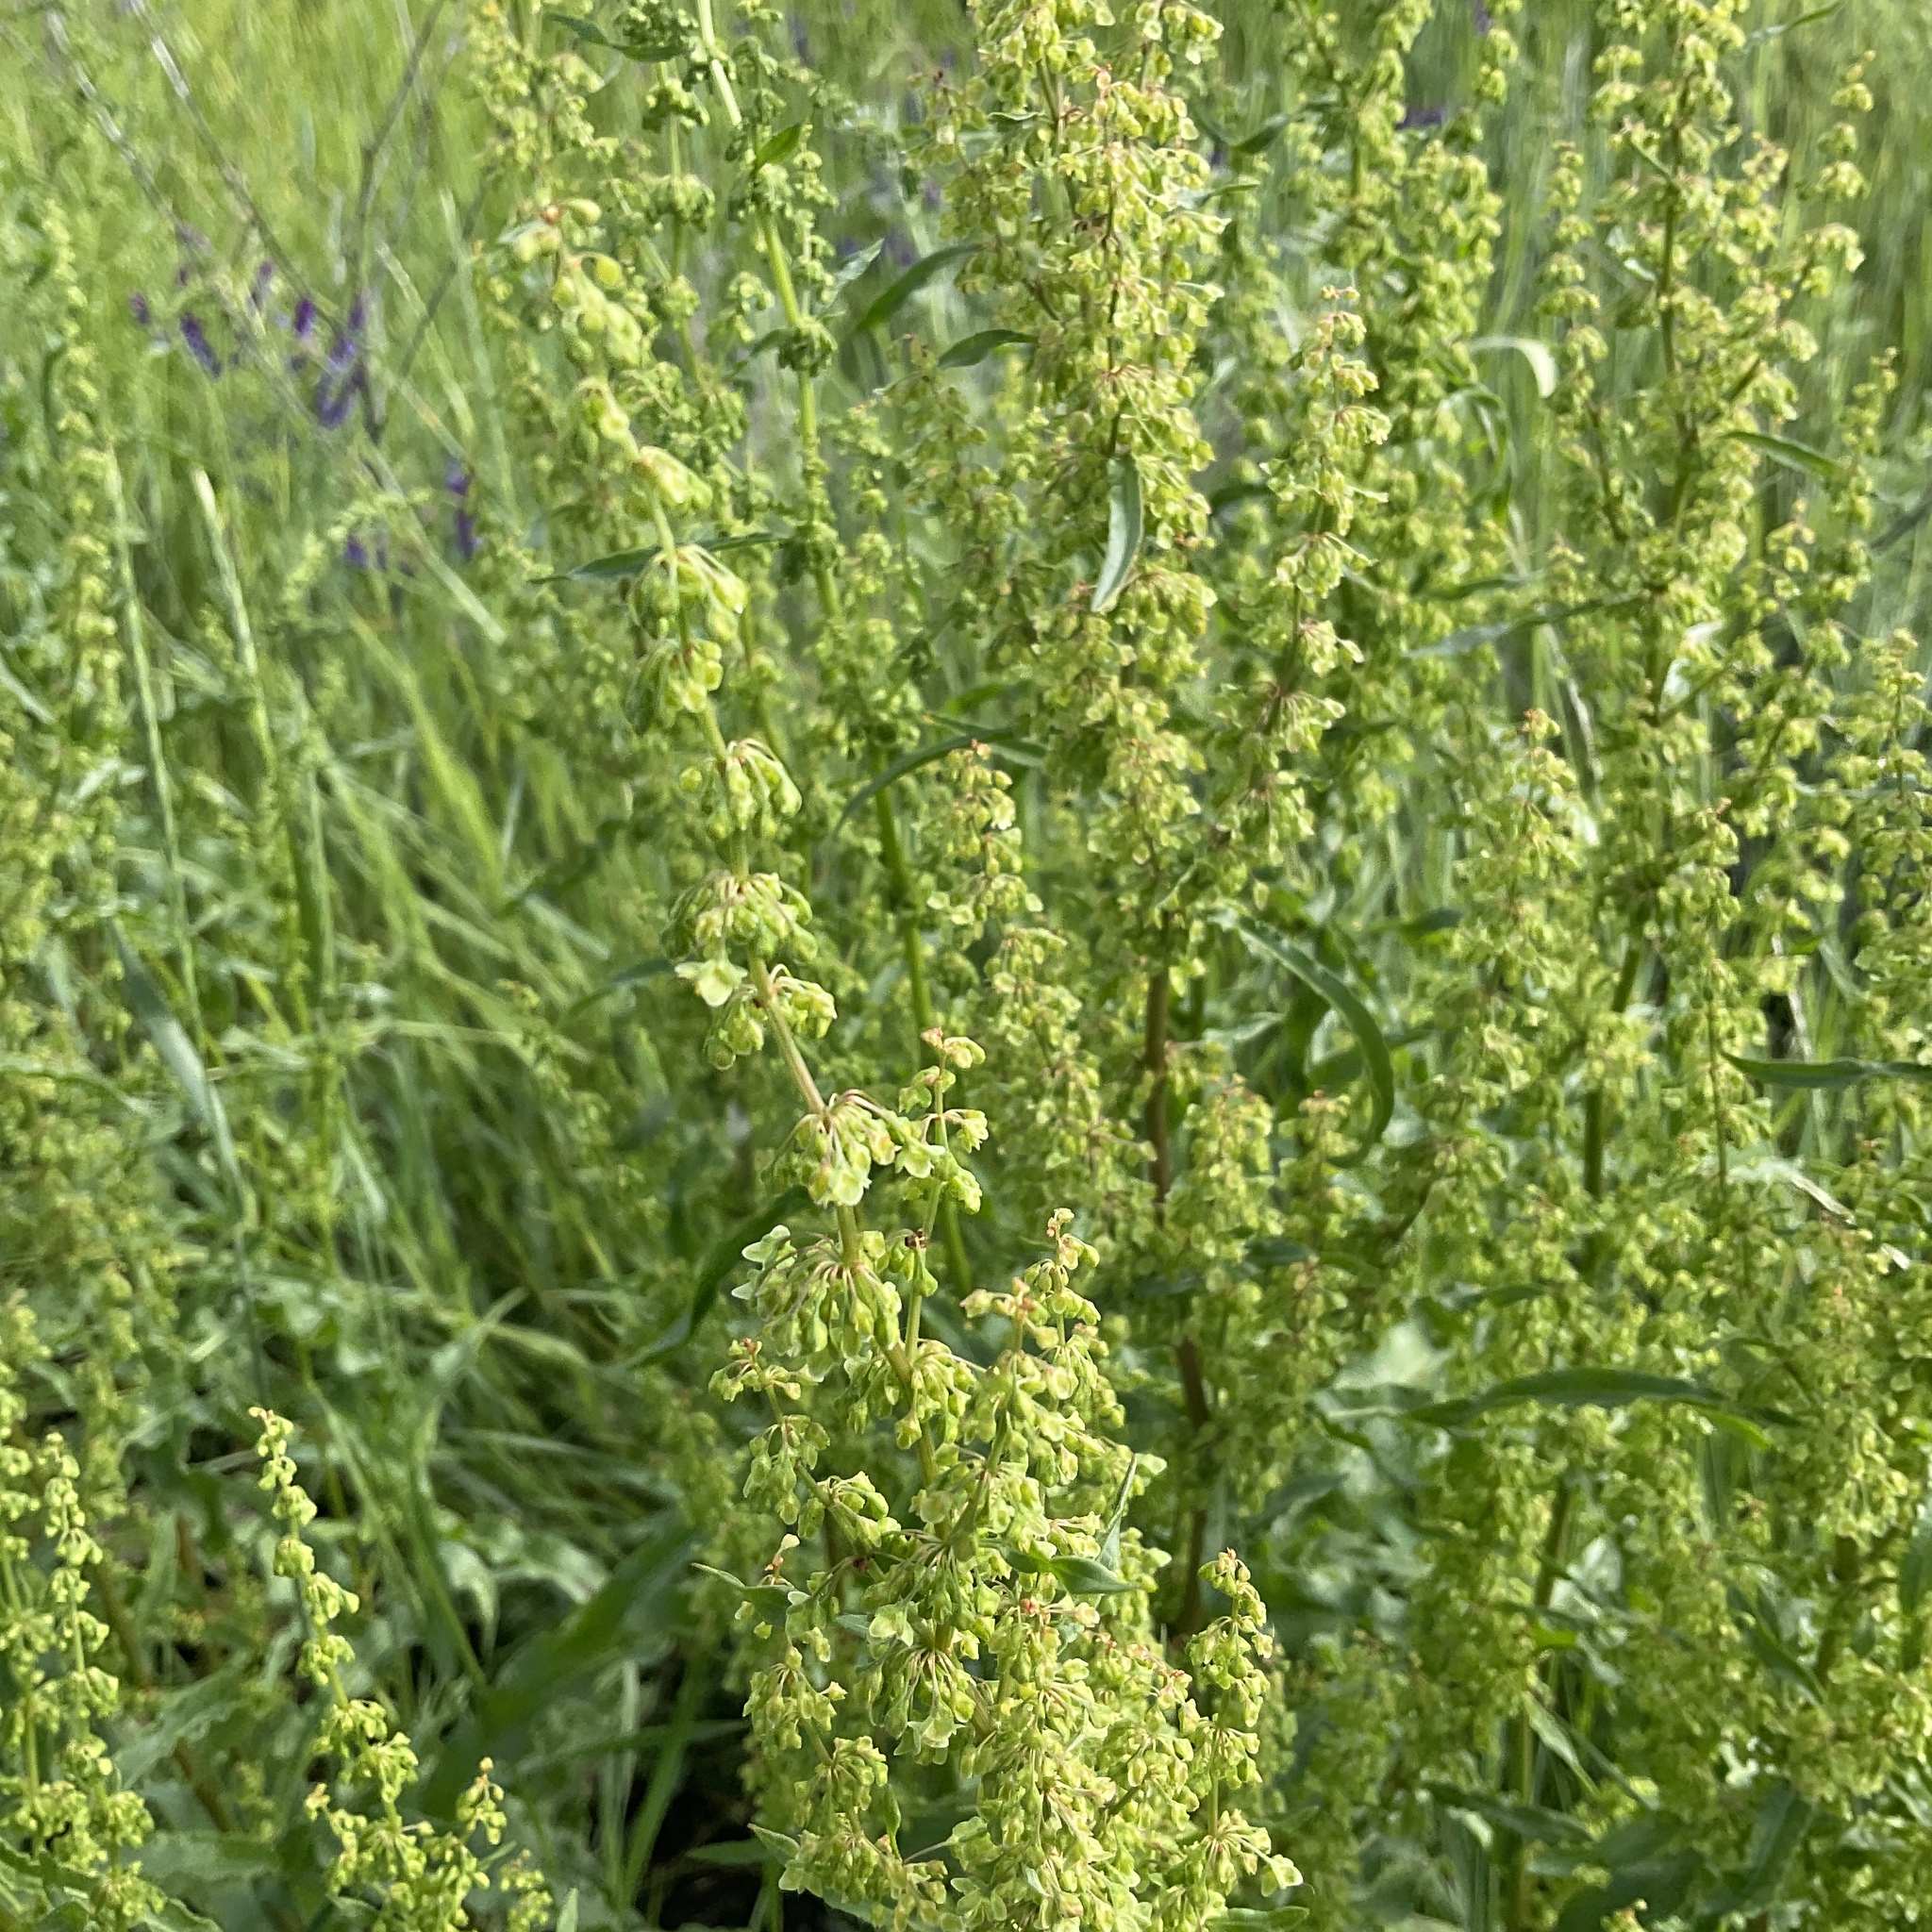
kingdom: Plantae
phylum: Tracheophyta
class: Magnoliopsida
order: Caryophyllales
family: Polygonaceae
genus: Rumex
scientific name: Rumex crispus
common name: Curled dock
